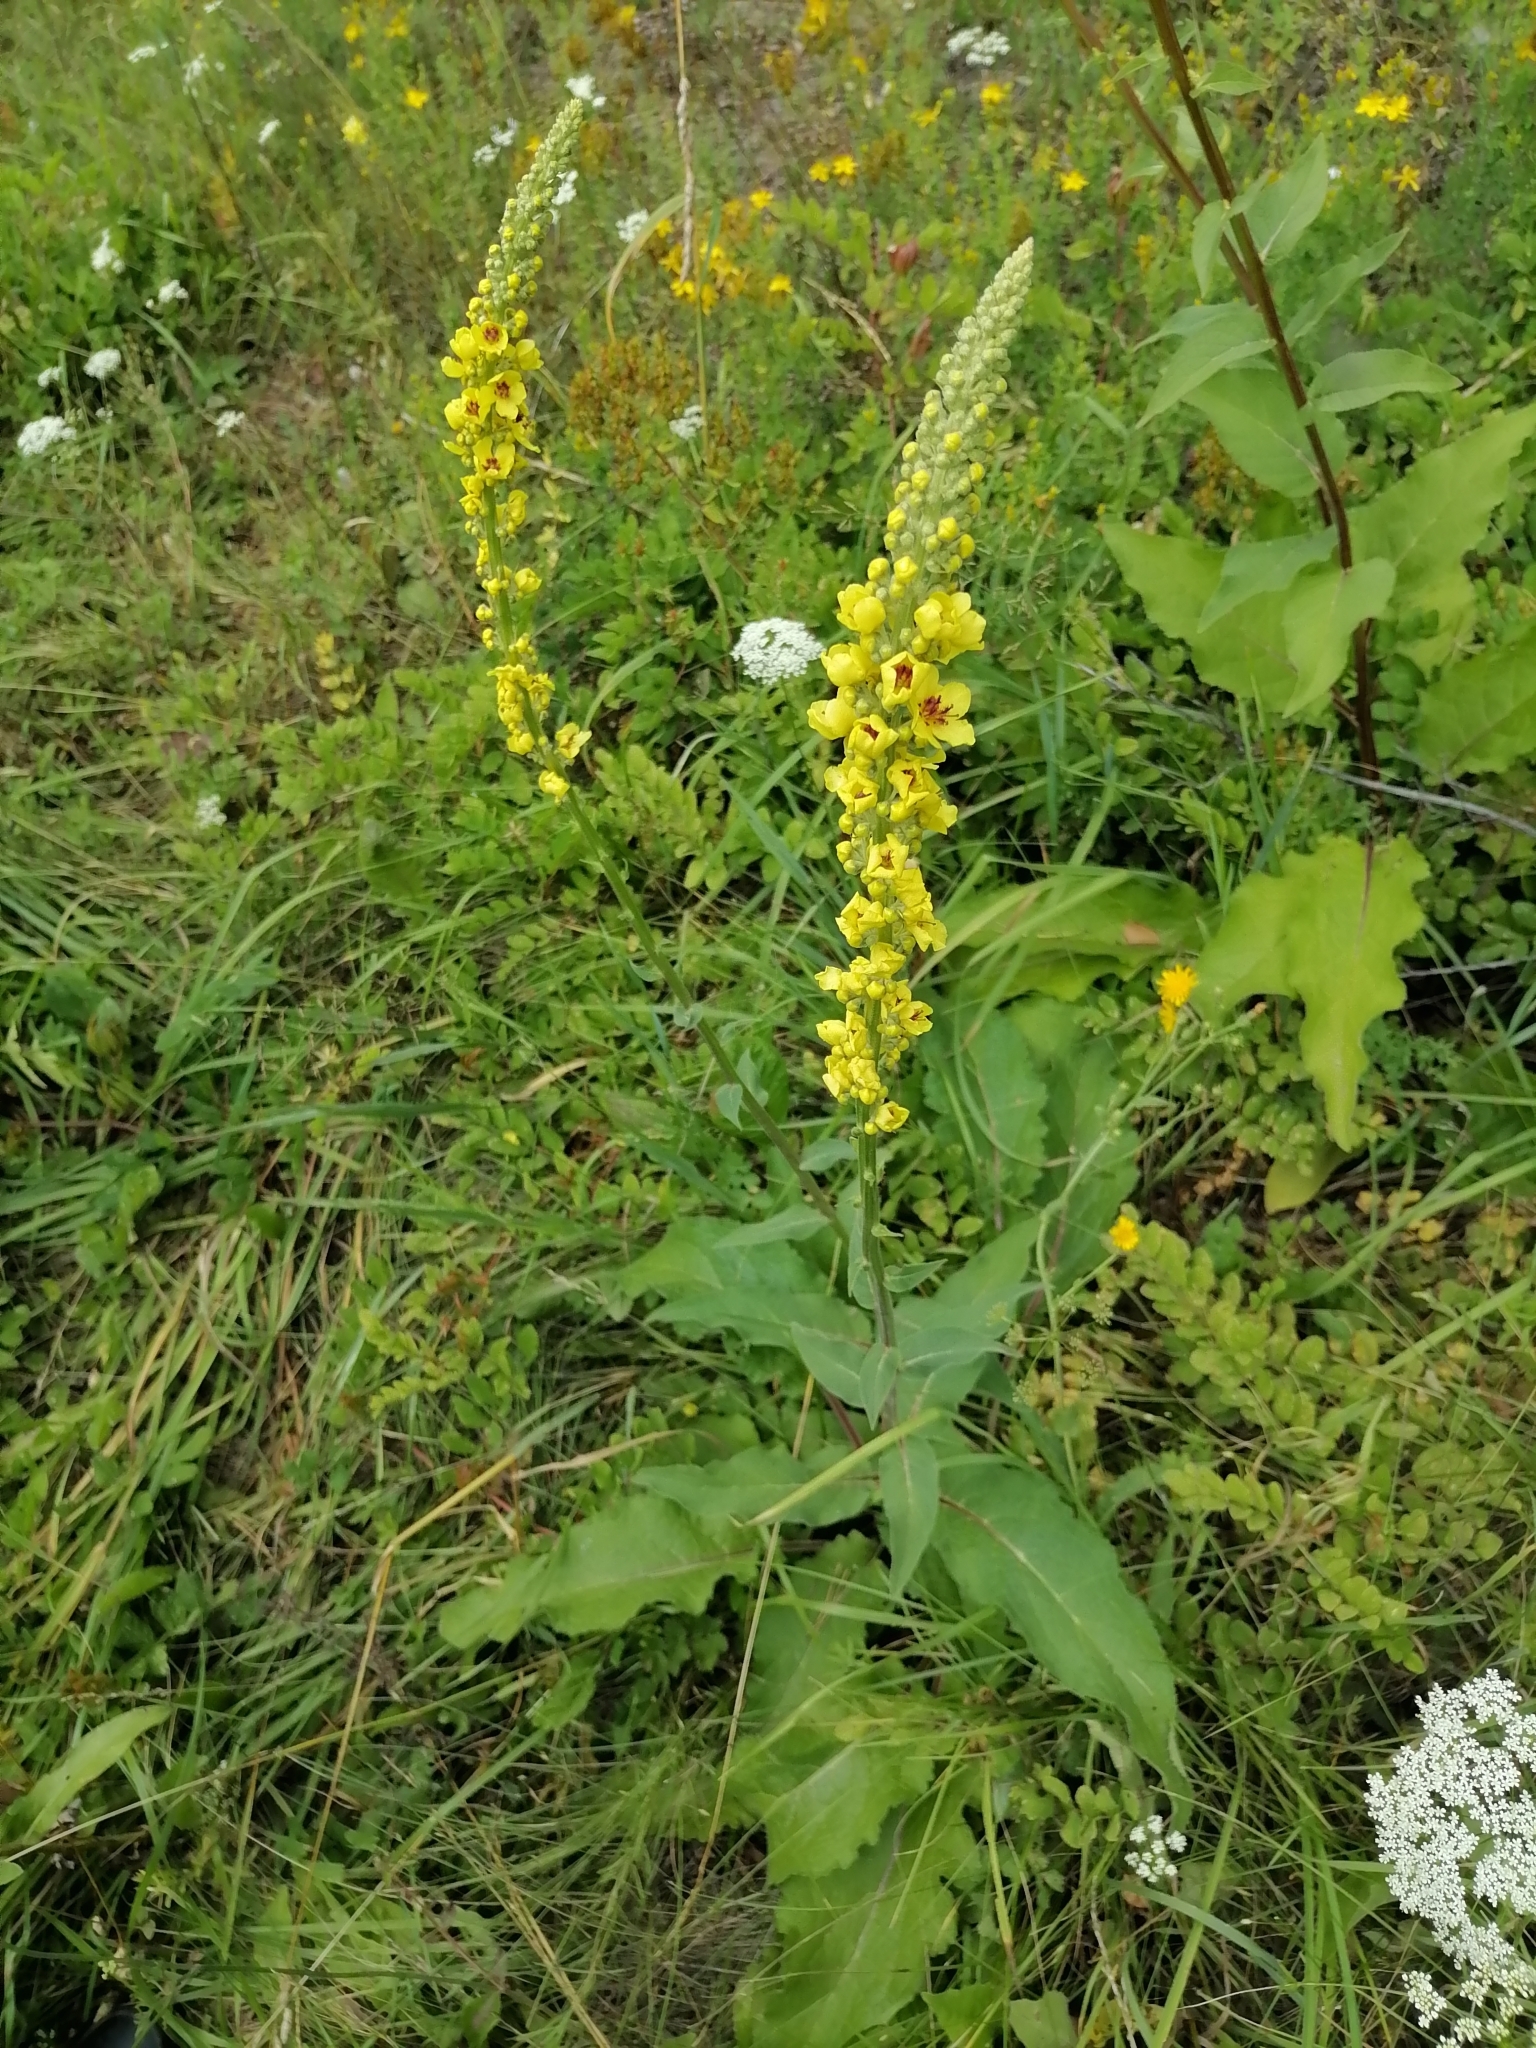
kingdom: Plantae
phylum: Tracheophyta
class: Magnoliopsida
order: Lamiales
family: Scrophulariaceae
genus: Verbascum
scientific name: Verbascum nigrum
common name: Dark mullein
